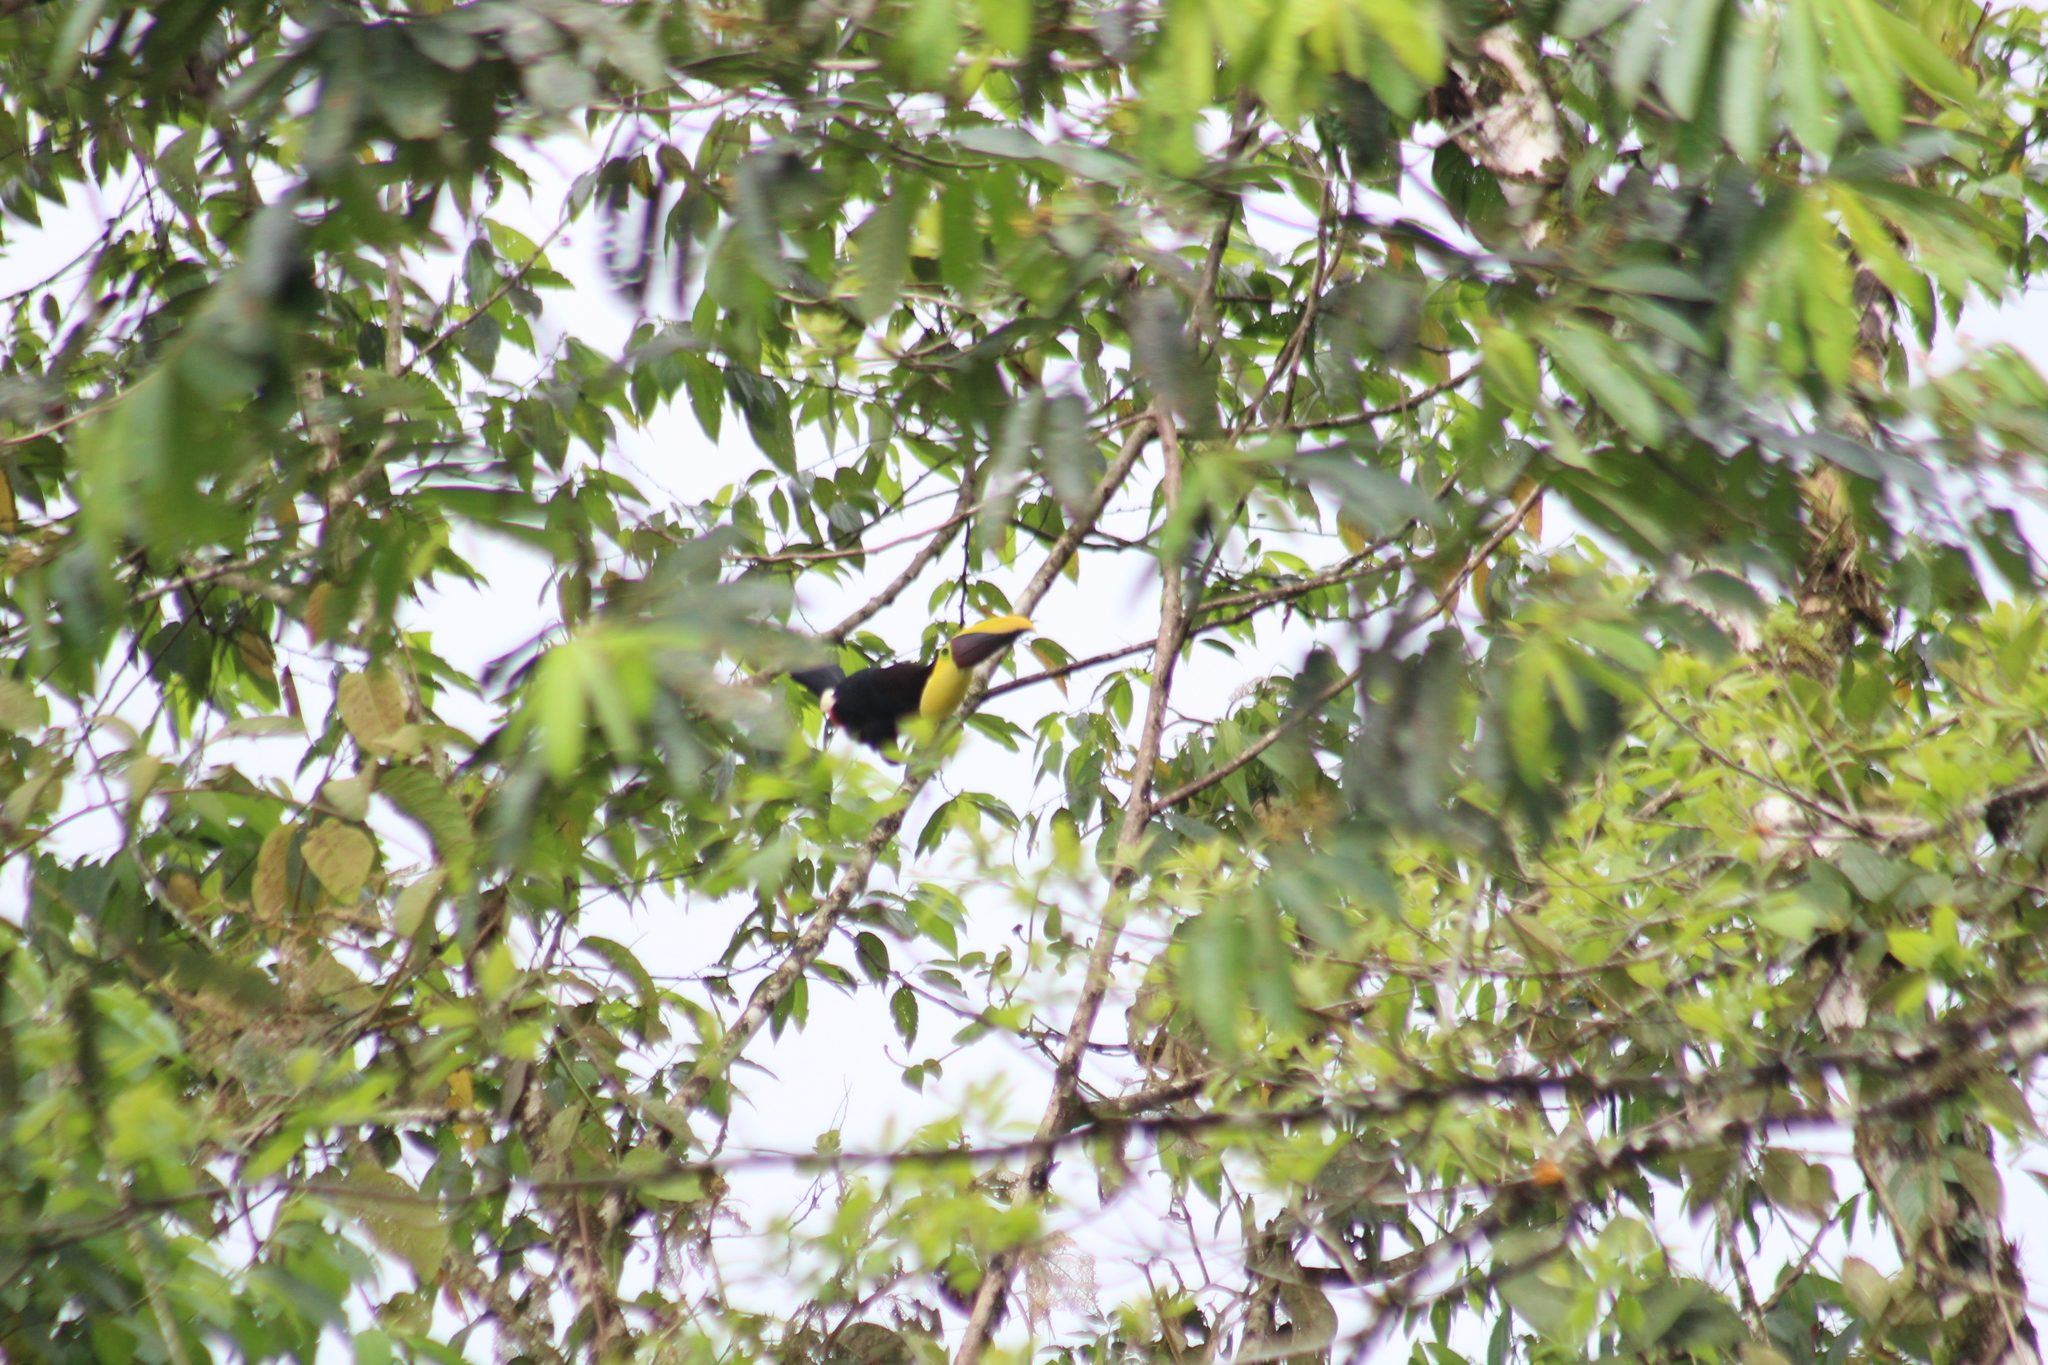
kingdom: Animalia
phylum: Chordata
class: Aves
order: Piciformes
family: Ramphastidae
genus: Ramphastos
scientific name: Ramphastos ambiguus
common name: Yellow-throated toucan
